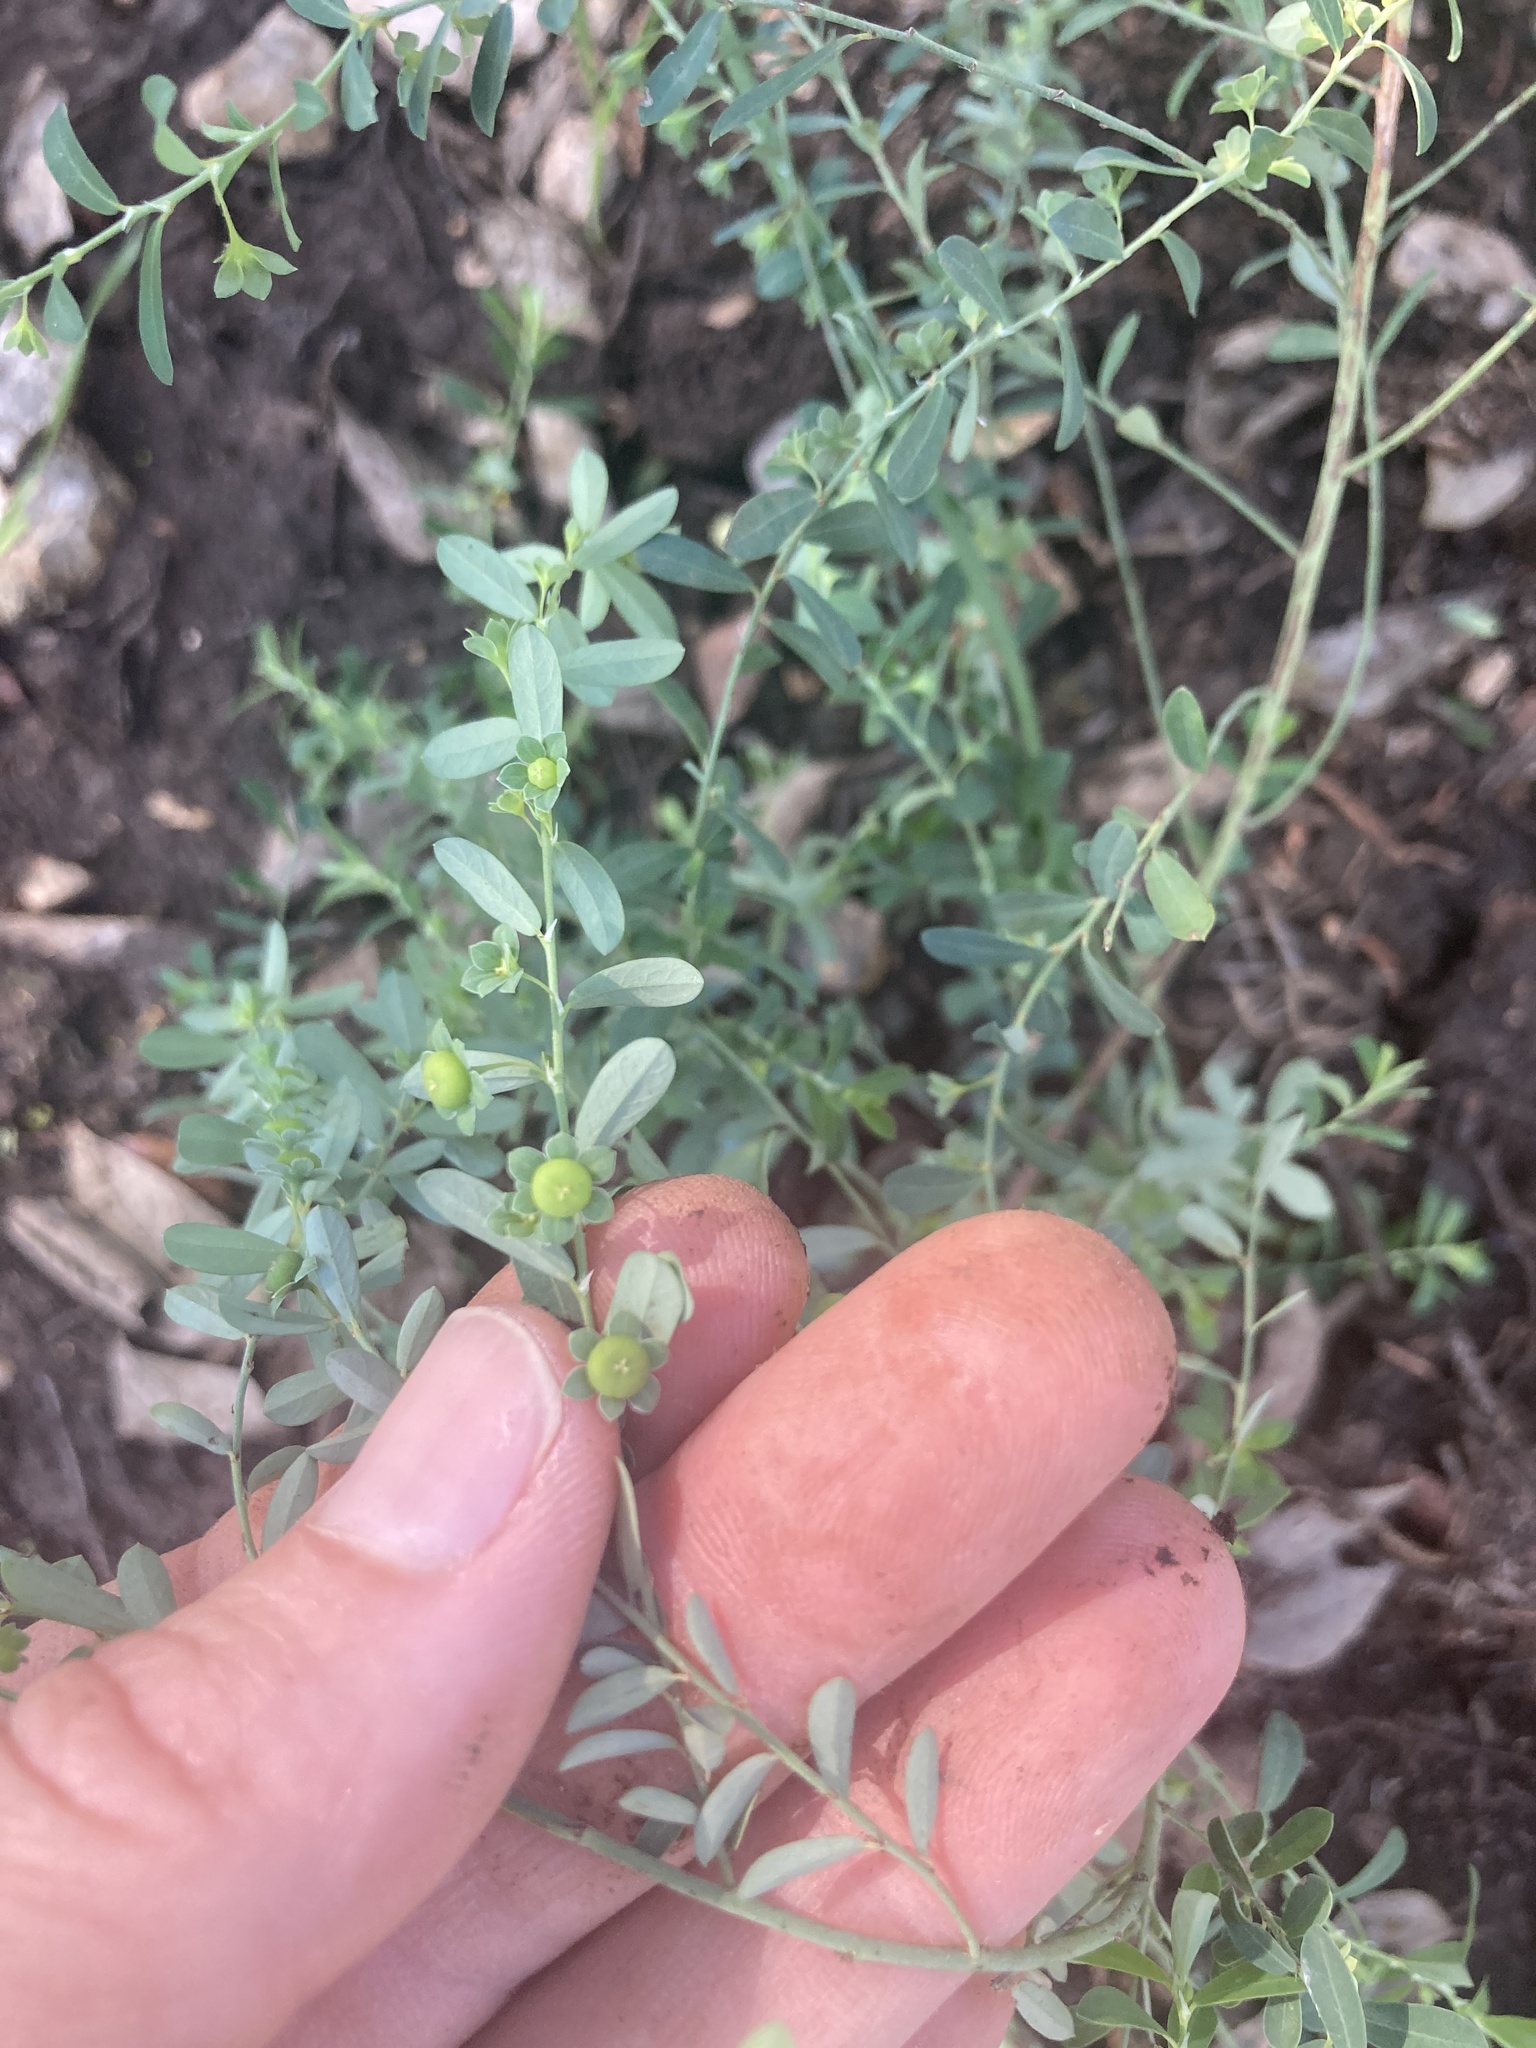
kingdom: Plantae
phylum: Tracheophyta
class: Magnoliopsida
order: Malpighiales
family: Phyllanthaceae
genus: Phyllanthus
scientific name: Phyllanthus polygonoides
